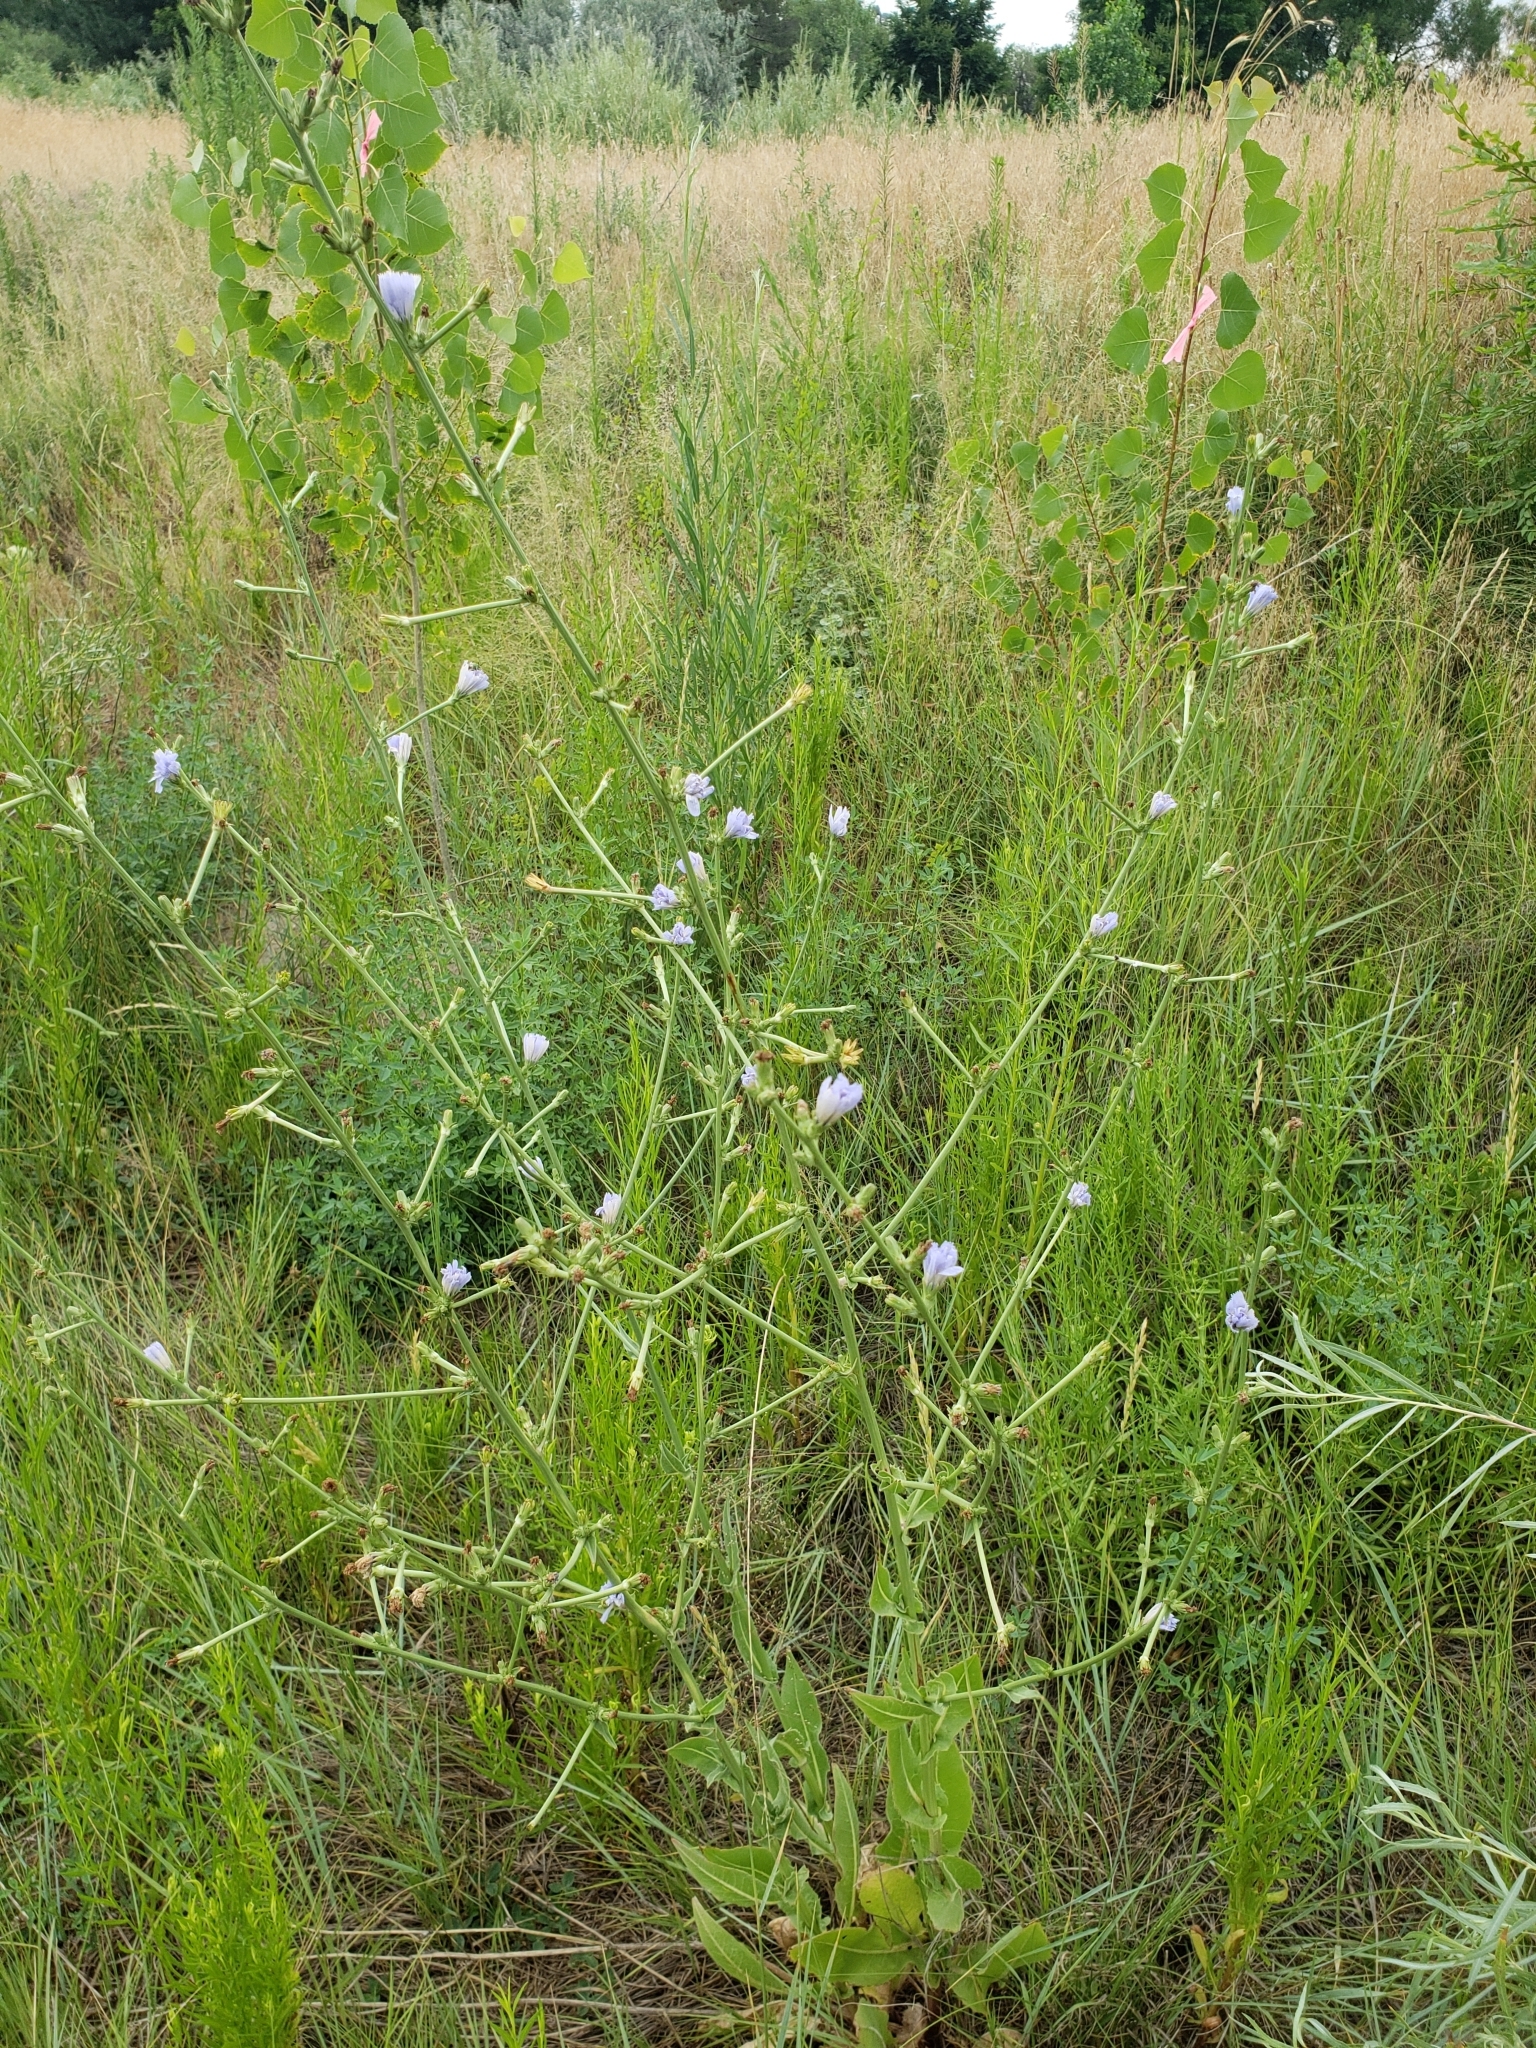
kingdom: Plantae
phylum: Tracheophyta
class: Magnoliopsida
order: Asterales
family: Asteraceae
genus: Cichorium
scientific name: Cichorium intybus
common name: Chicory
